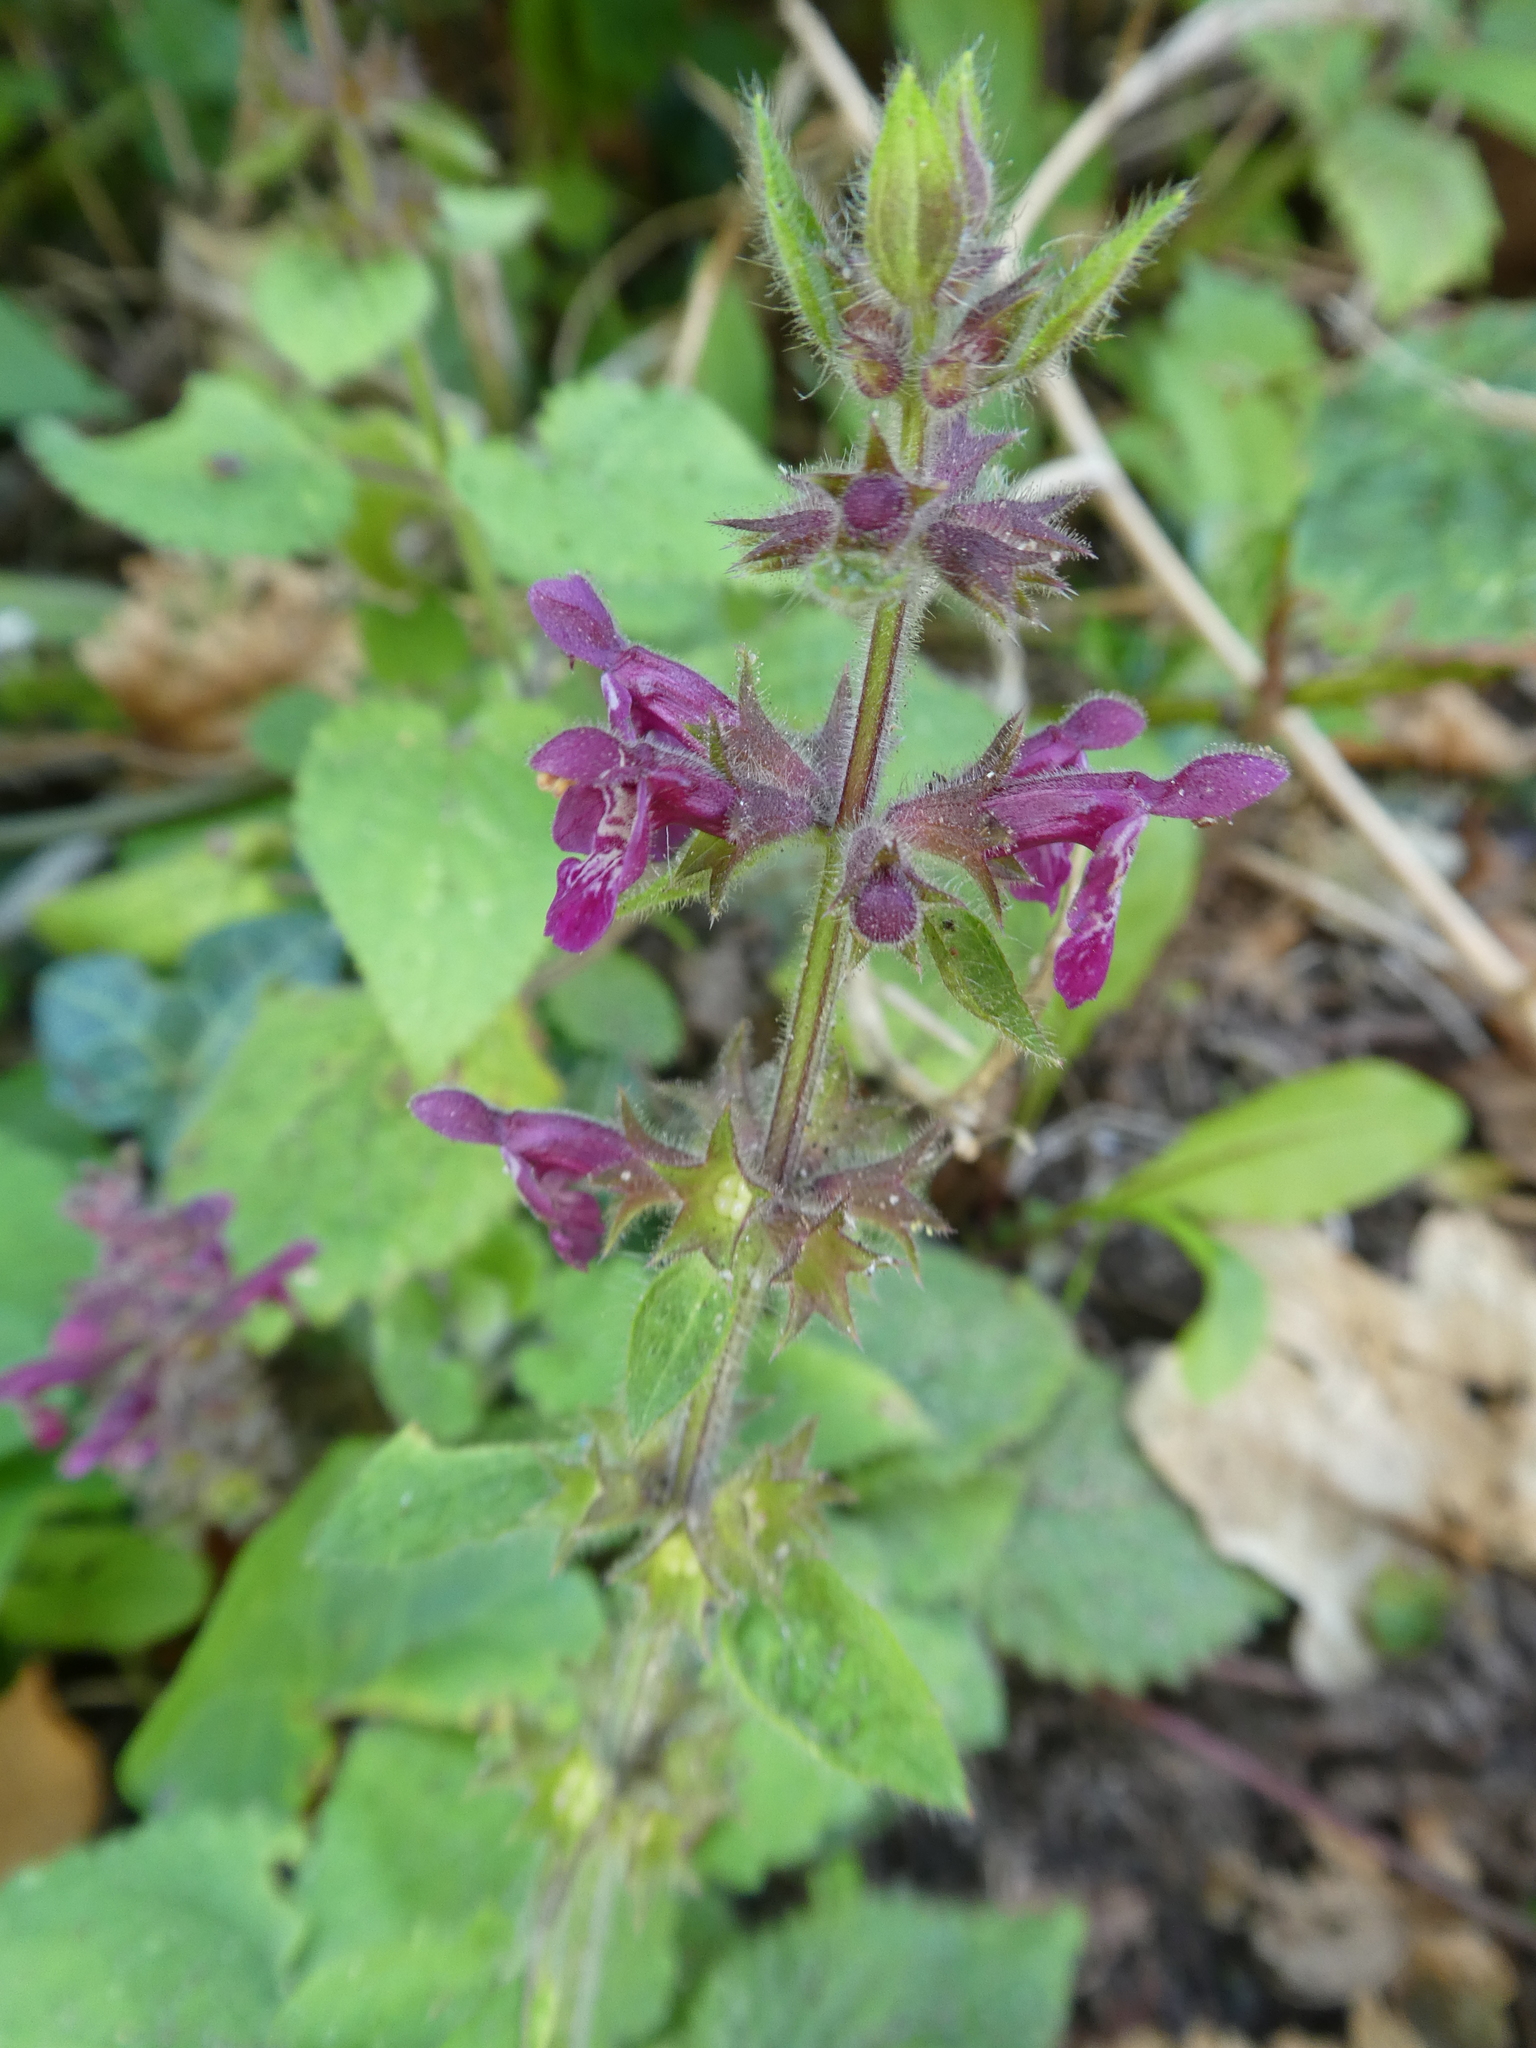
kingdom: Plantae
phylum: Tracheophyta
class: Magnoliopsida
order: Lamiales
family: Lamiaceae
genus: Stachys
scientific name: Stachys sylvatica
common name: Hedge woundwort
